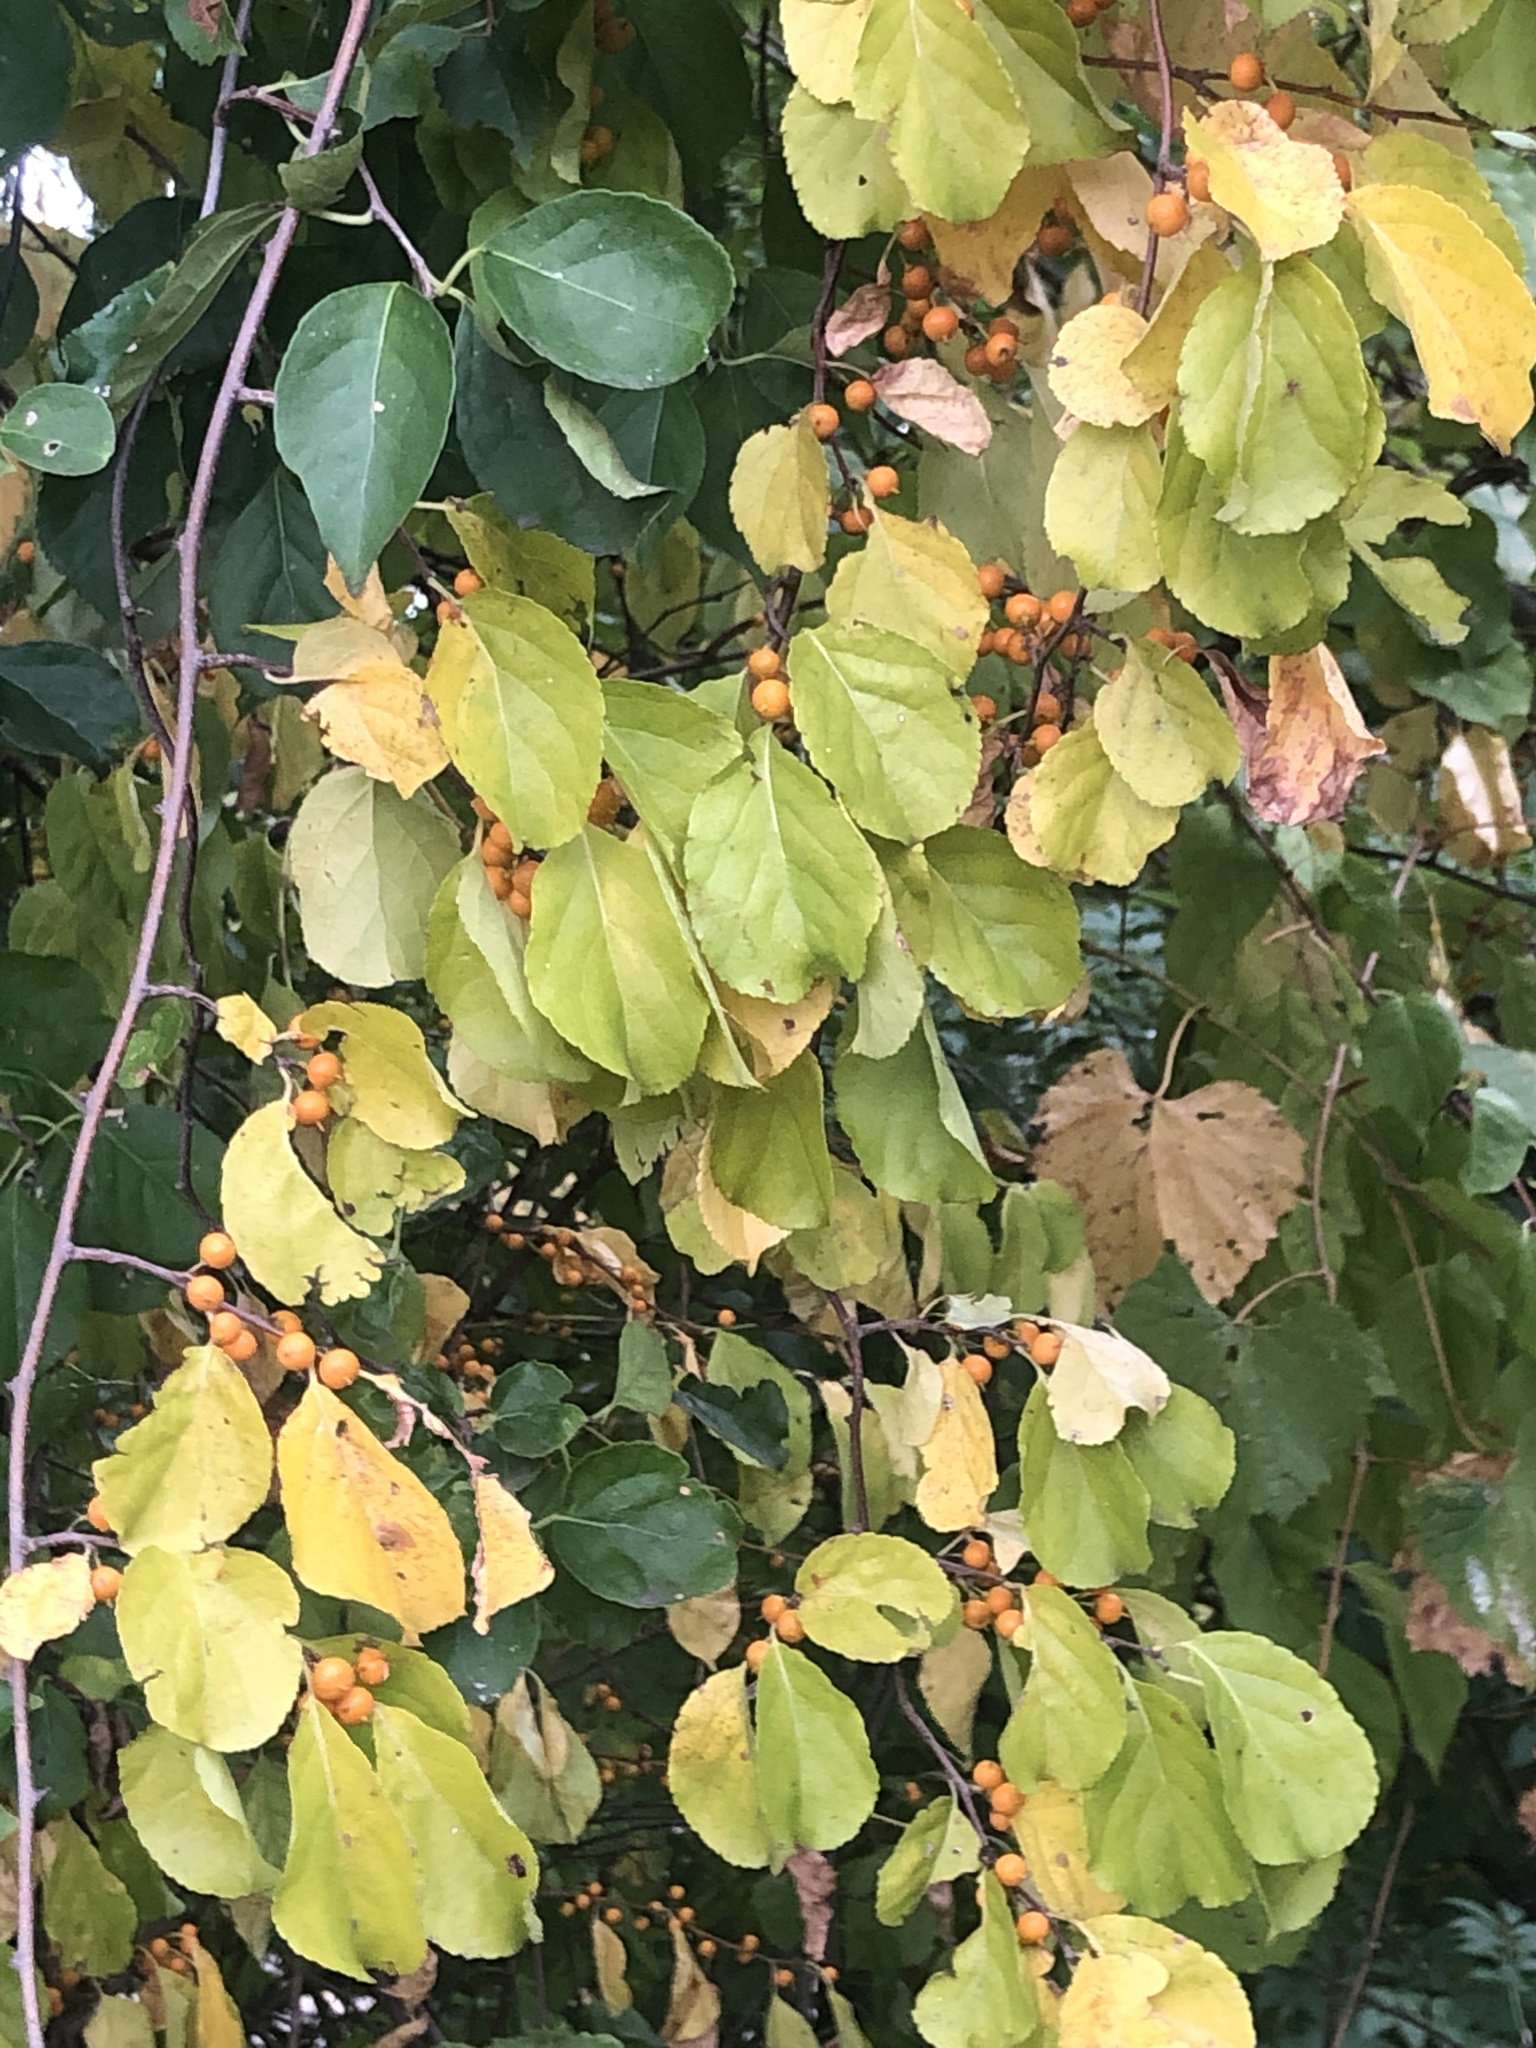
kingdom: Plantae
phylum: Tracheophyta
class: Magnoliopsida
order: Celastrales
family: Celastraceae
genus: Celastrus
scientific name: Celastrus orbiculatus
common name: Oriental bittersweet
